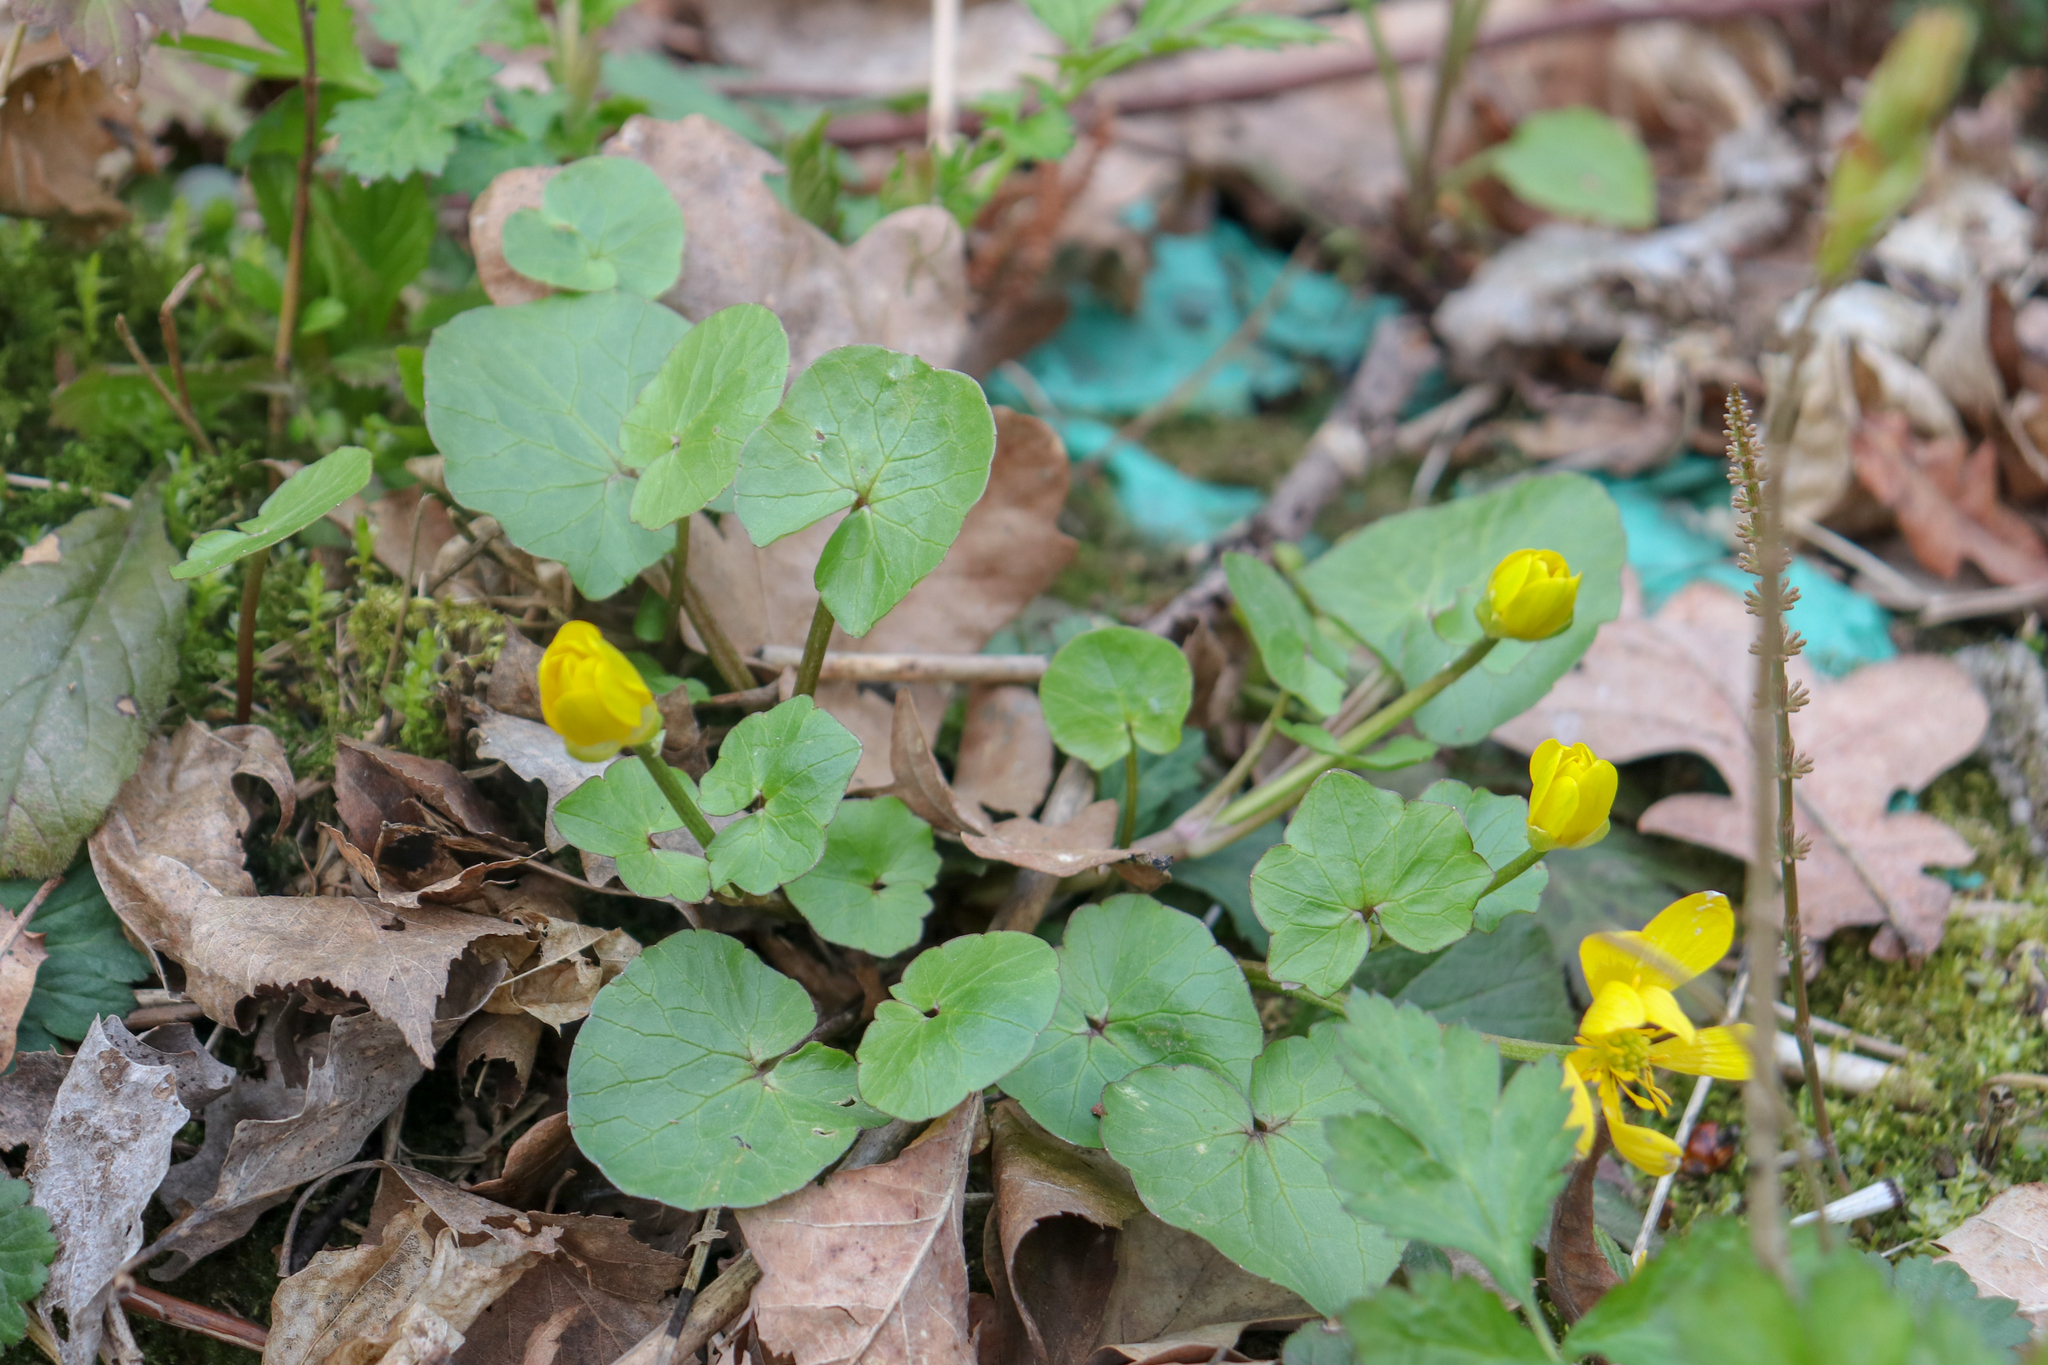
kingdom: Plantae
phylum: Tracheophyta
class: Magnoliopsida
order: Ranunculales
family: Ranunculaceae
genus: Ficaria
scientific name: Ficaria verna
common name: Lesser celandine
